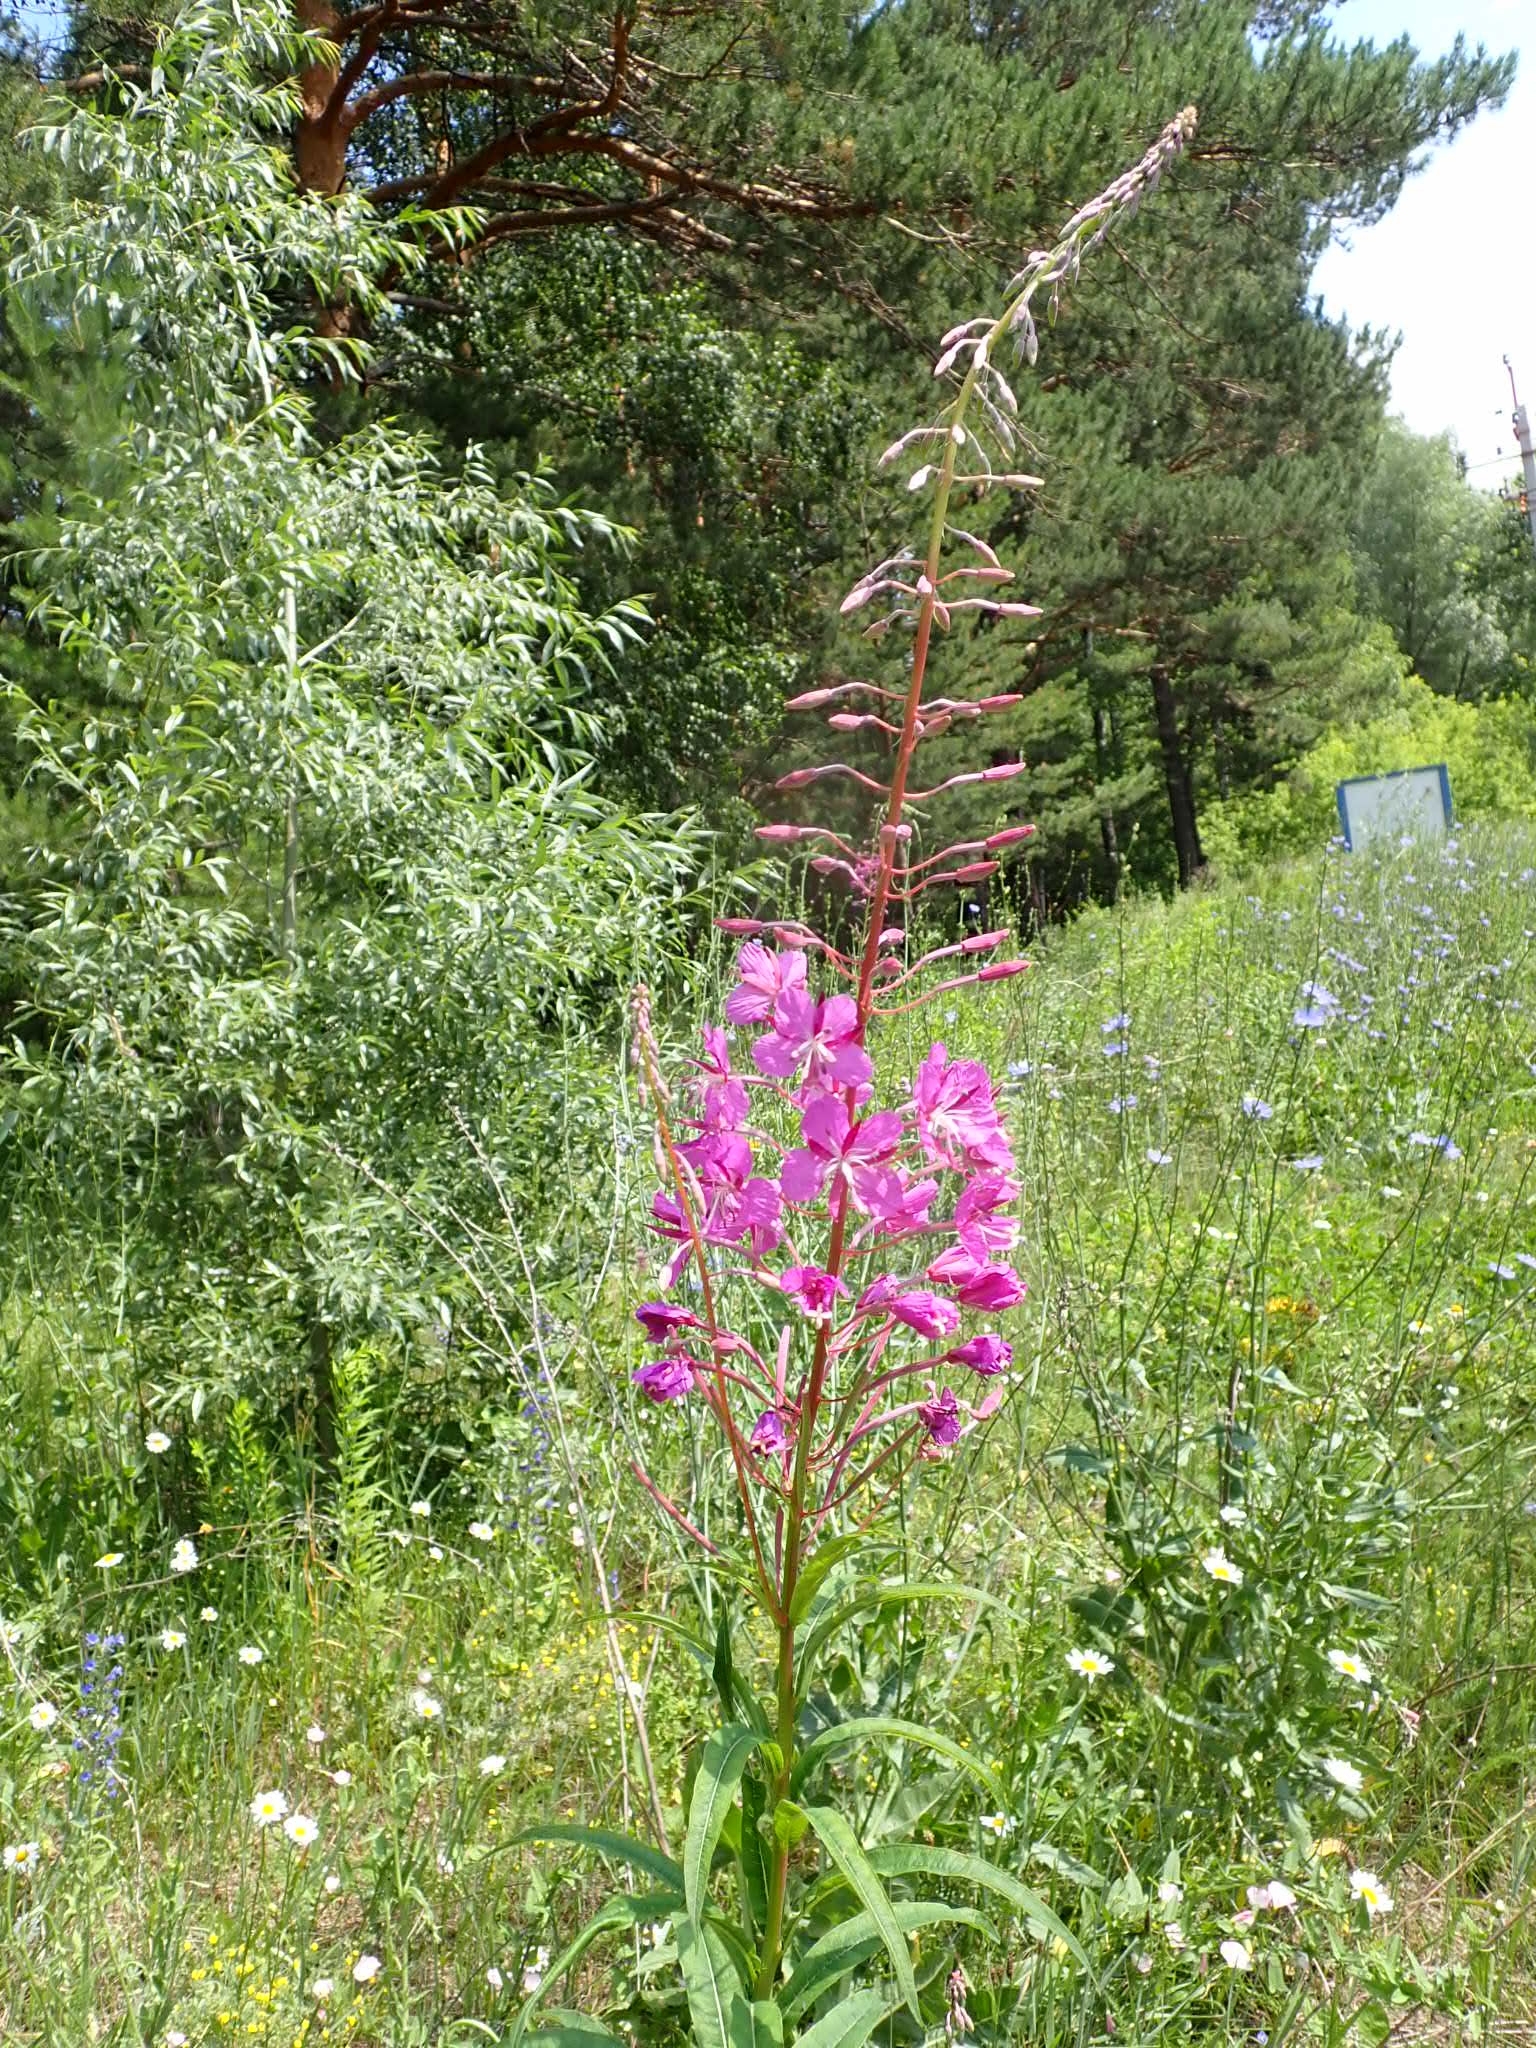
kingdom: Plantae
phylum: Tracheophyta
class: Magnoliopsida
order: Myrtales
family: Onagraceae
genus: Chamaenerion
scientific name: Chamaenerion angustifolium
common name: Fireweed
